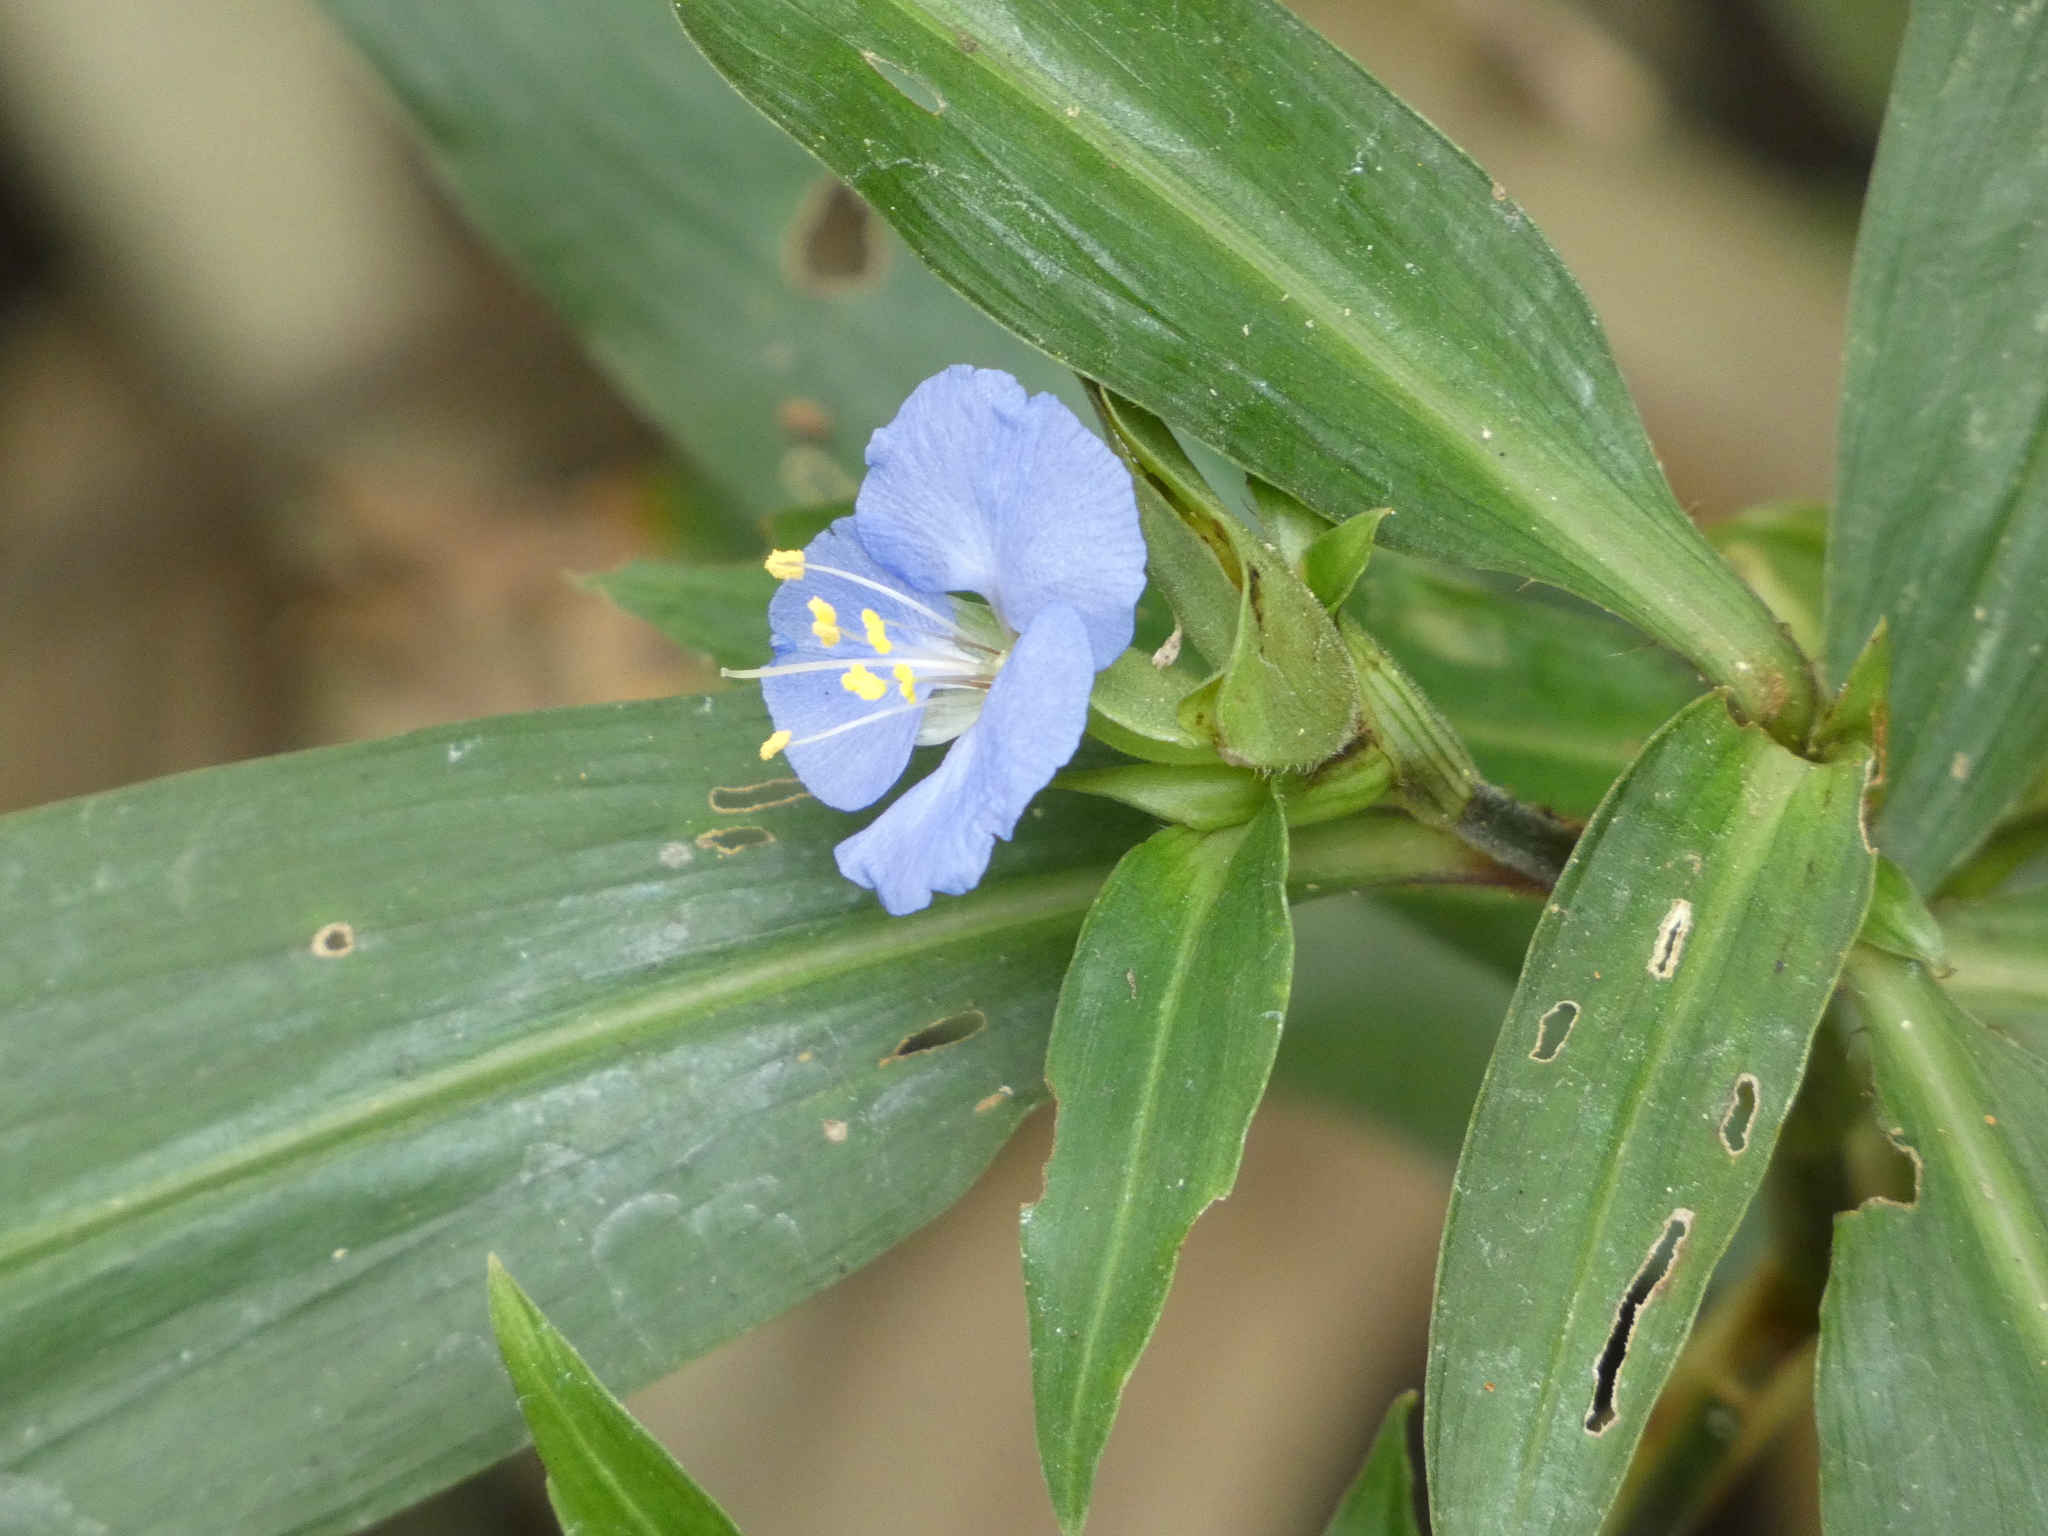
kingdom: Plantae
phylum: Tracheophyta
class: Liliopsida
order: Commelinales
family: Commelinaceae
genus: Commelina
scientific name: Commelina virginica
